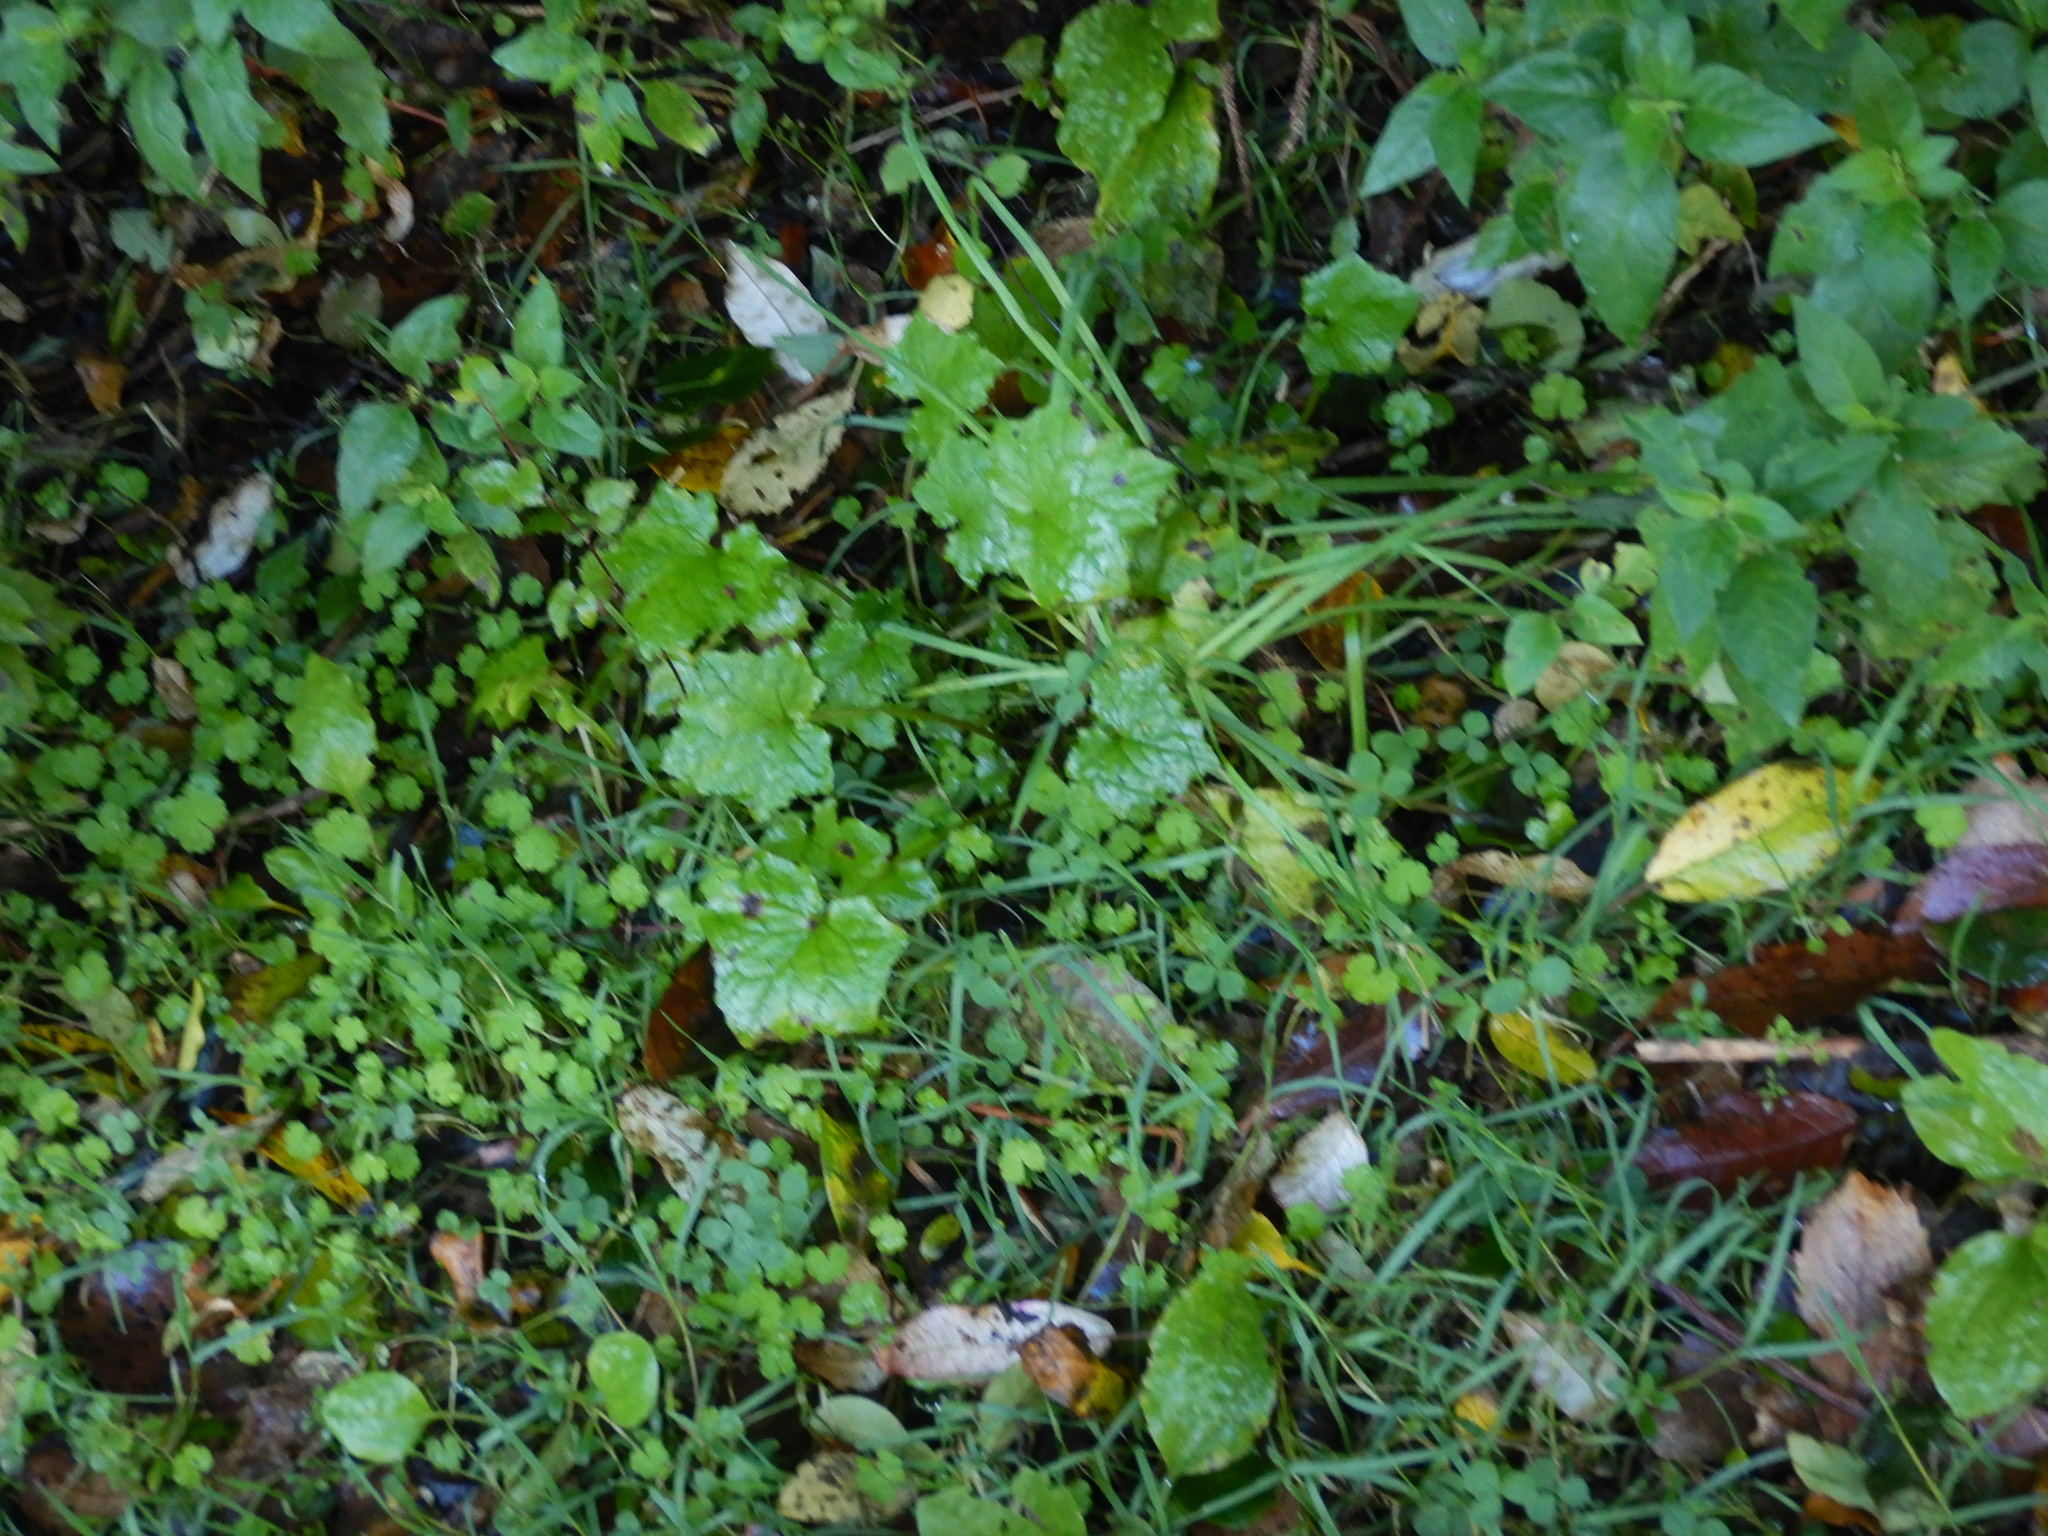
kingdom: Plantae
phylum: Tracheophyta
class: Magnoliopsida
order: Asterales
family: Asteraceae
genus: Mycelis
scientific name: Mycelis muralis
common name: Wall lettuce
